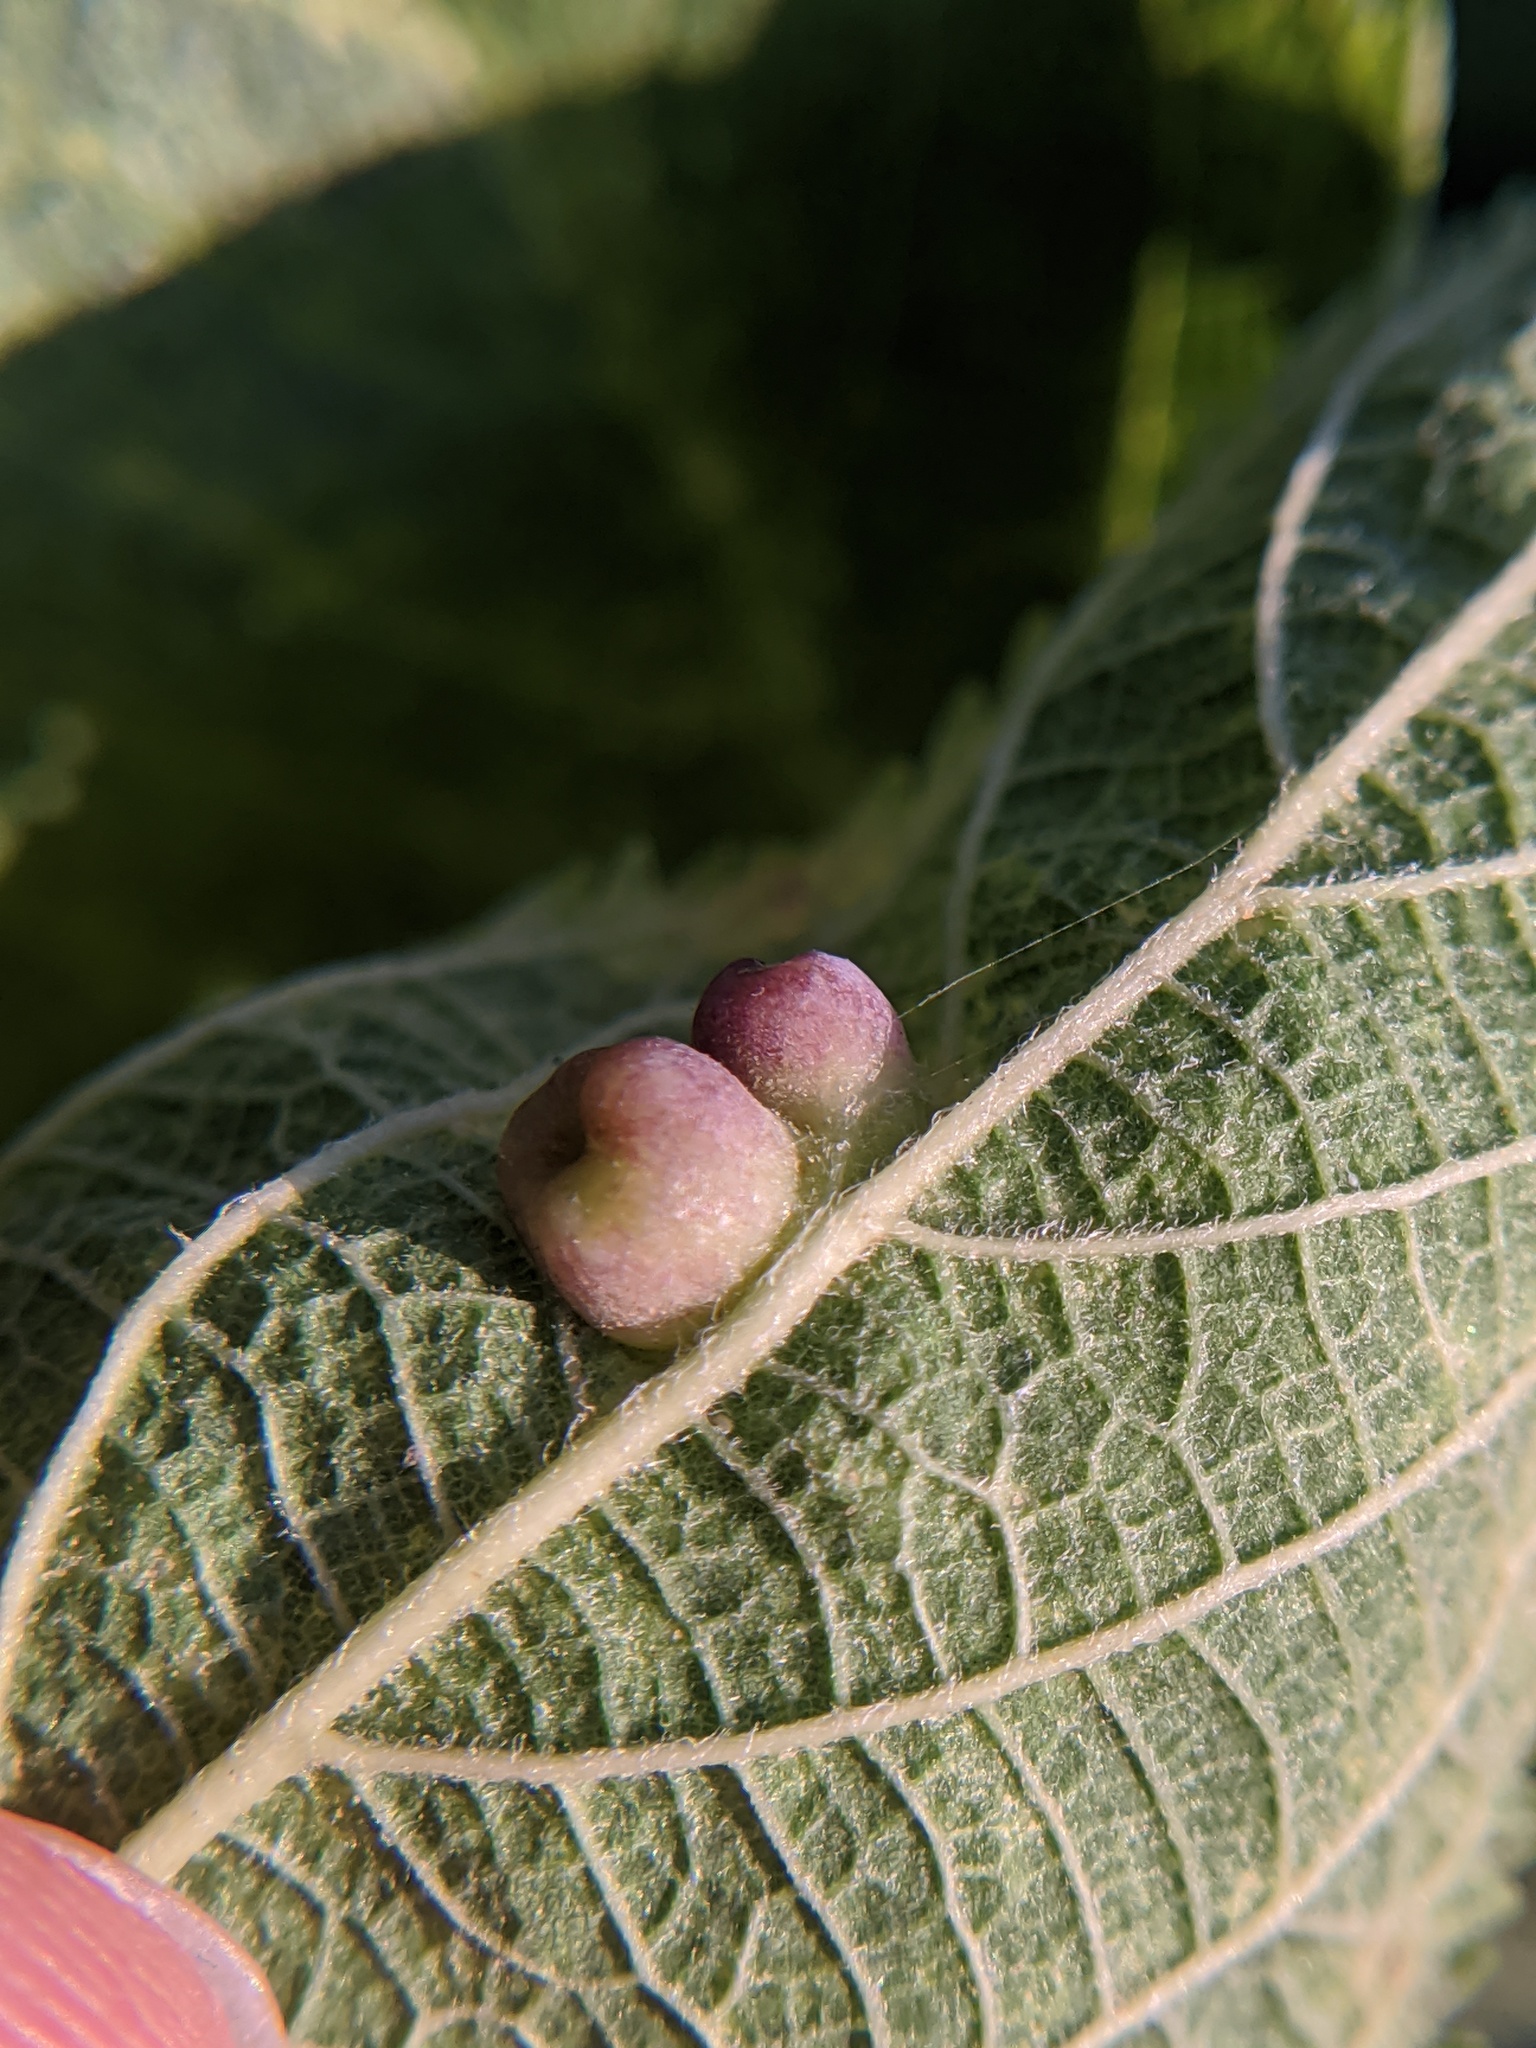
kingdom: Animalia
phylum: Arthropoda
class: Insecta
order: Hemiptera
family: Aphalaridae
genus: Pachypsylla
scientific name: Pachypsylla celtidismamma
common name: Hackberry nipplegall psyllid
